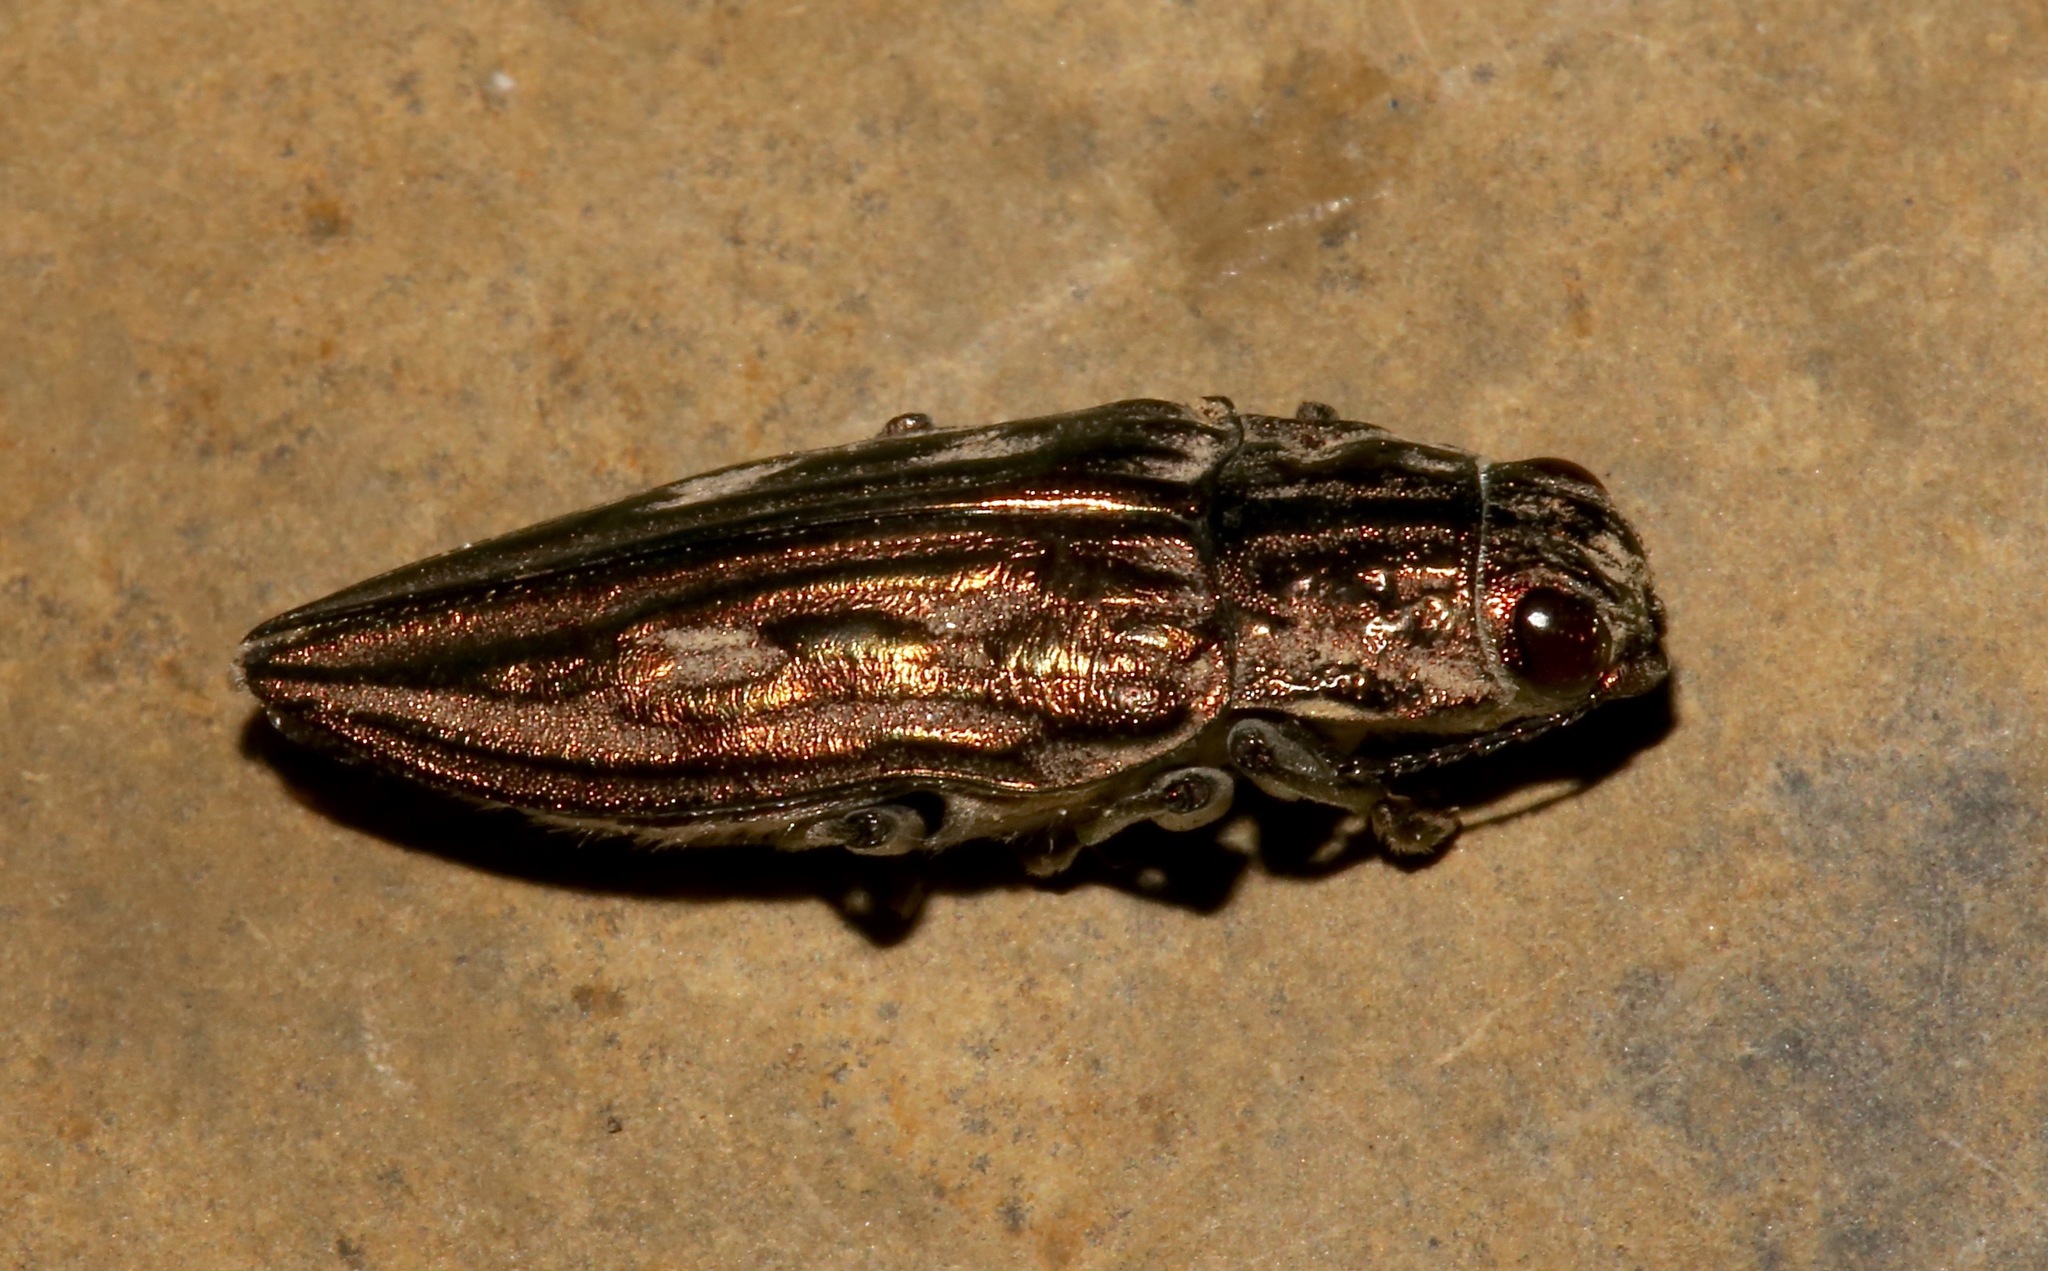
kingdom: Animalia
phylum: Arthropoda
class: Insecta
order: Coleoptera
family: Buprestidae
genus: Chalcophora
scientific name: Chalcophora georgiana
